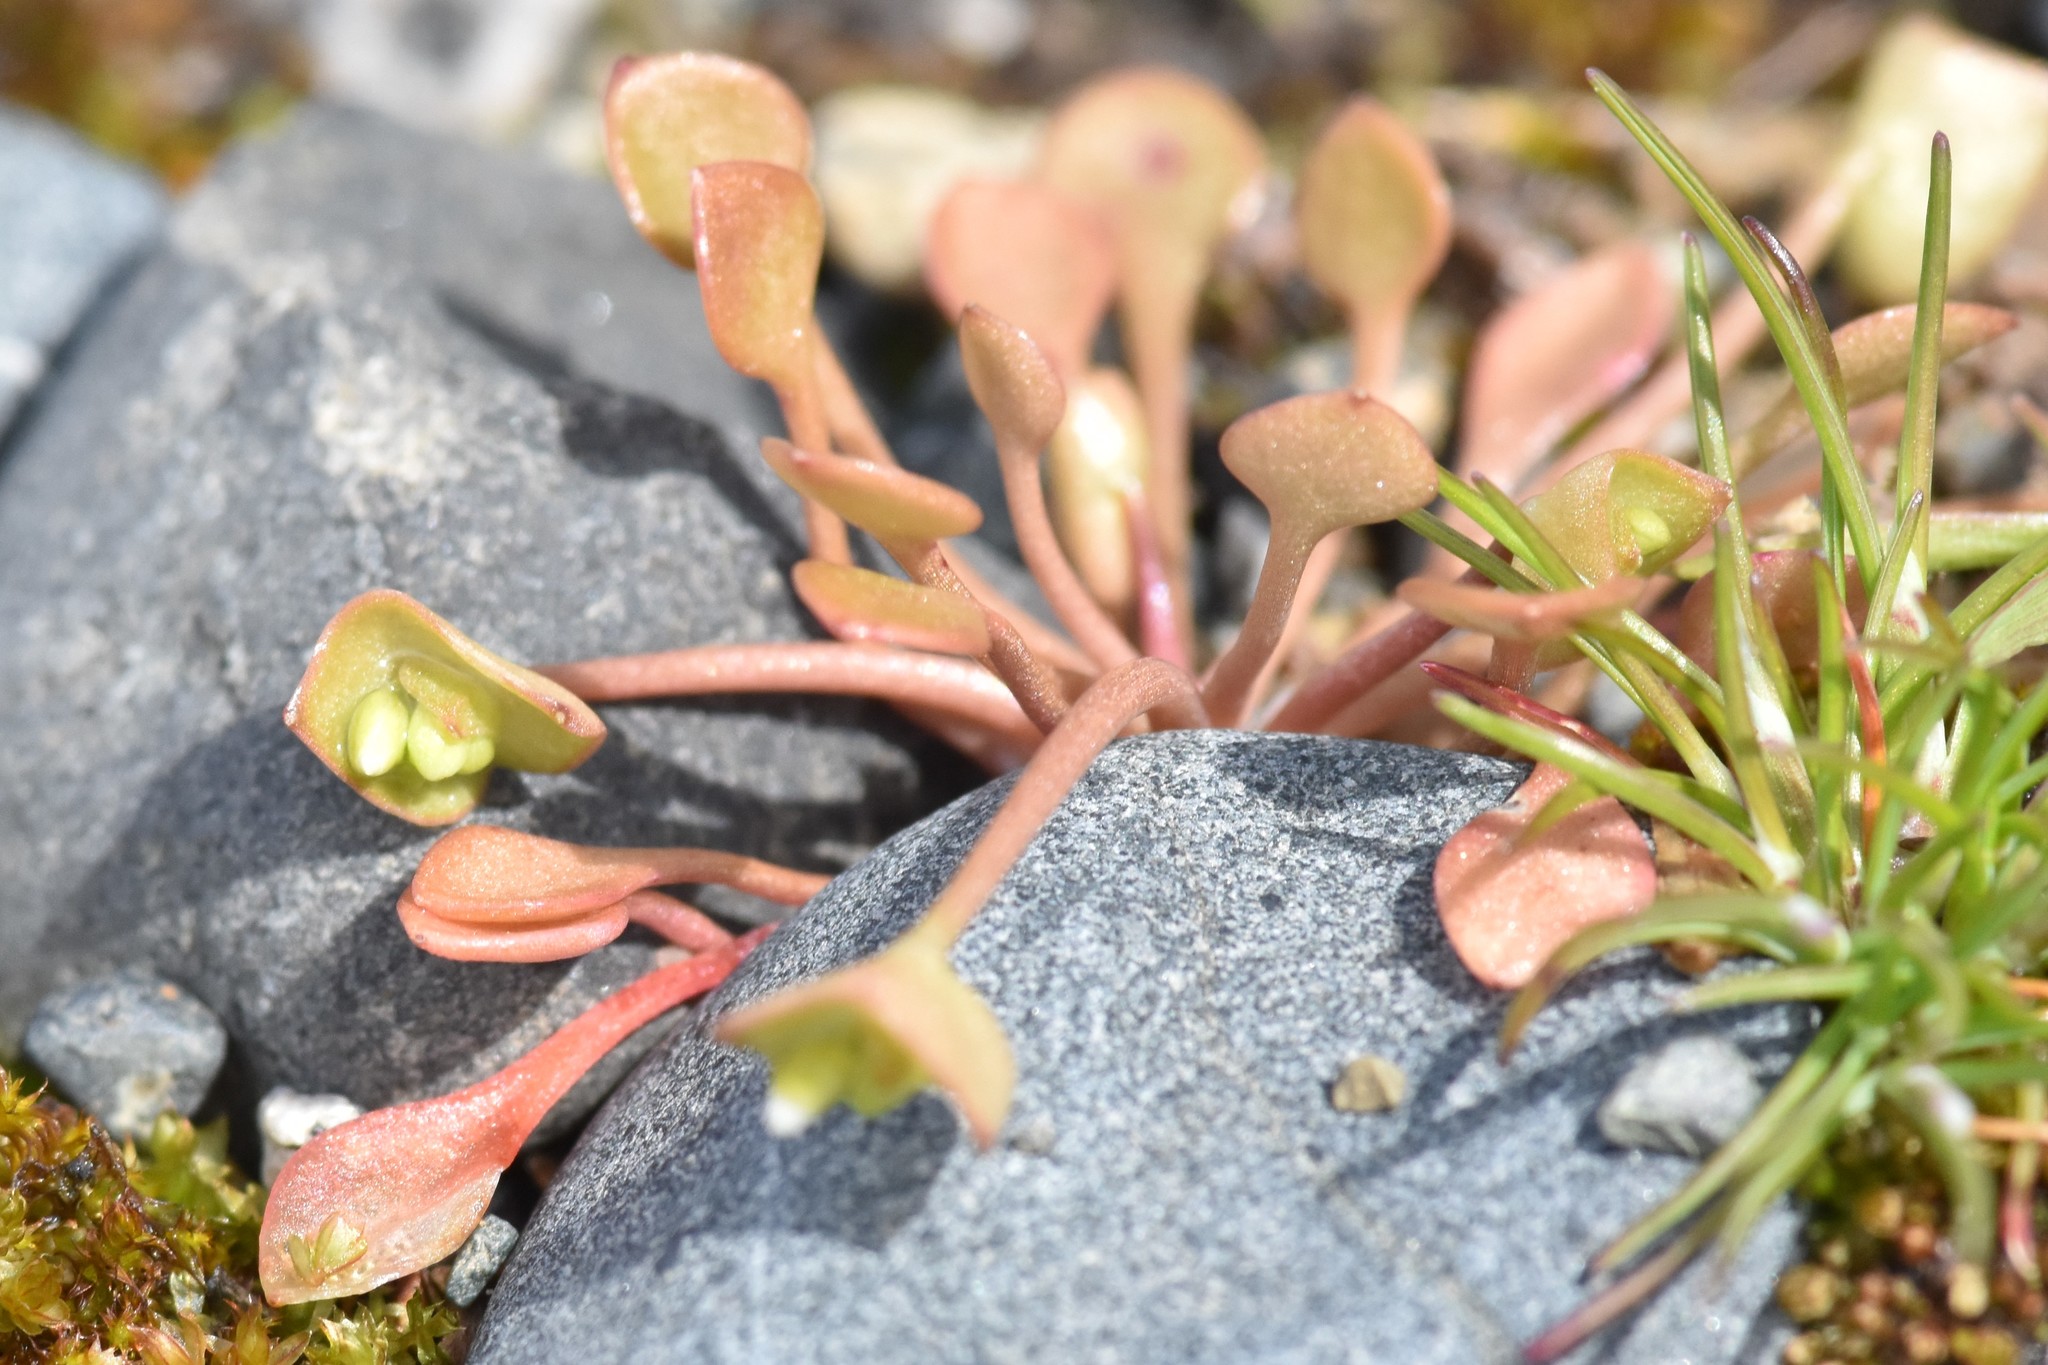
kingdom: Plantae
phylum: Tracheophyta
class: Magnoliopsida
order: Caryophyllales
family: Montiaceae
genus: Claytonia
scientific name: Claytonia rubra
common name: Erubescent miner's-lettuce
